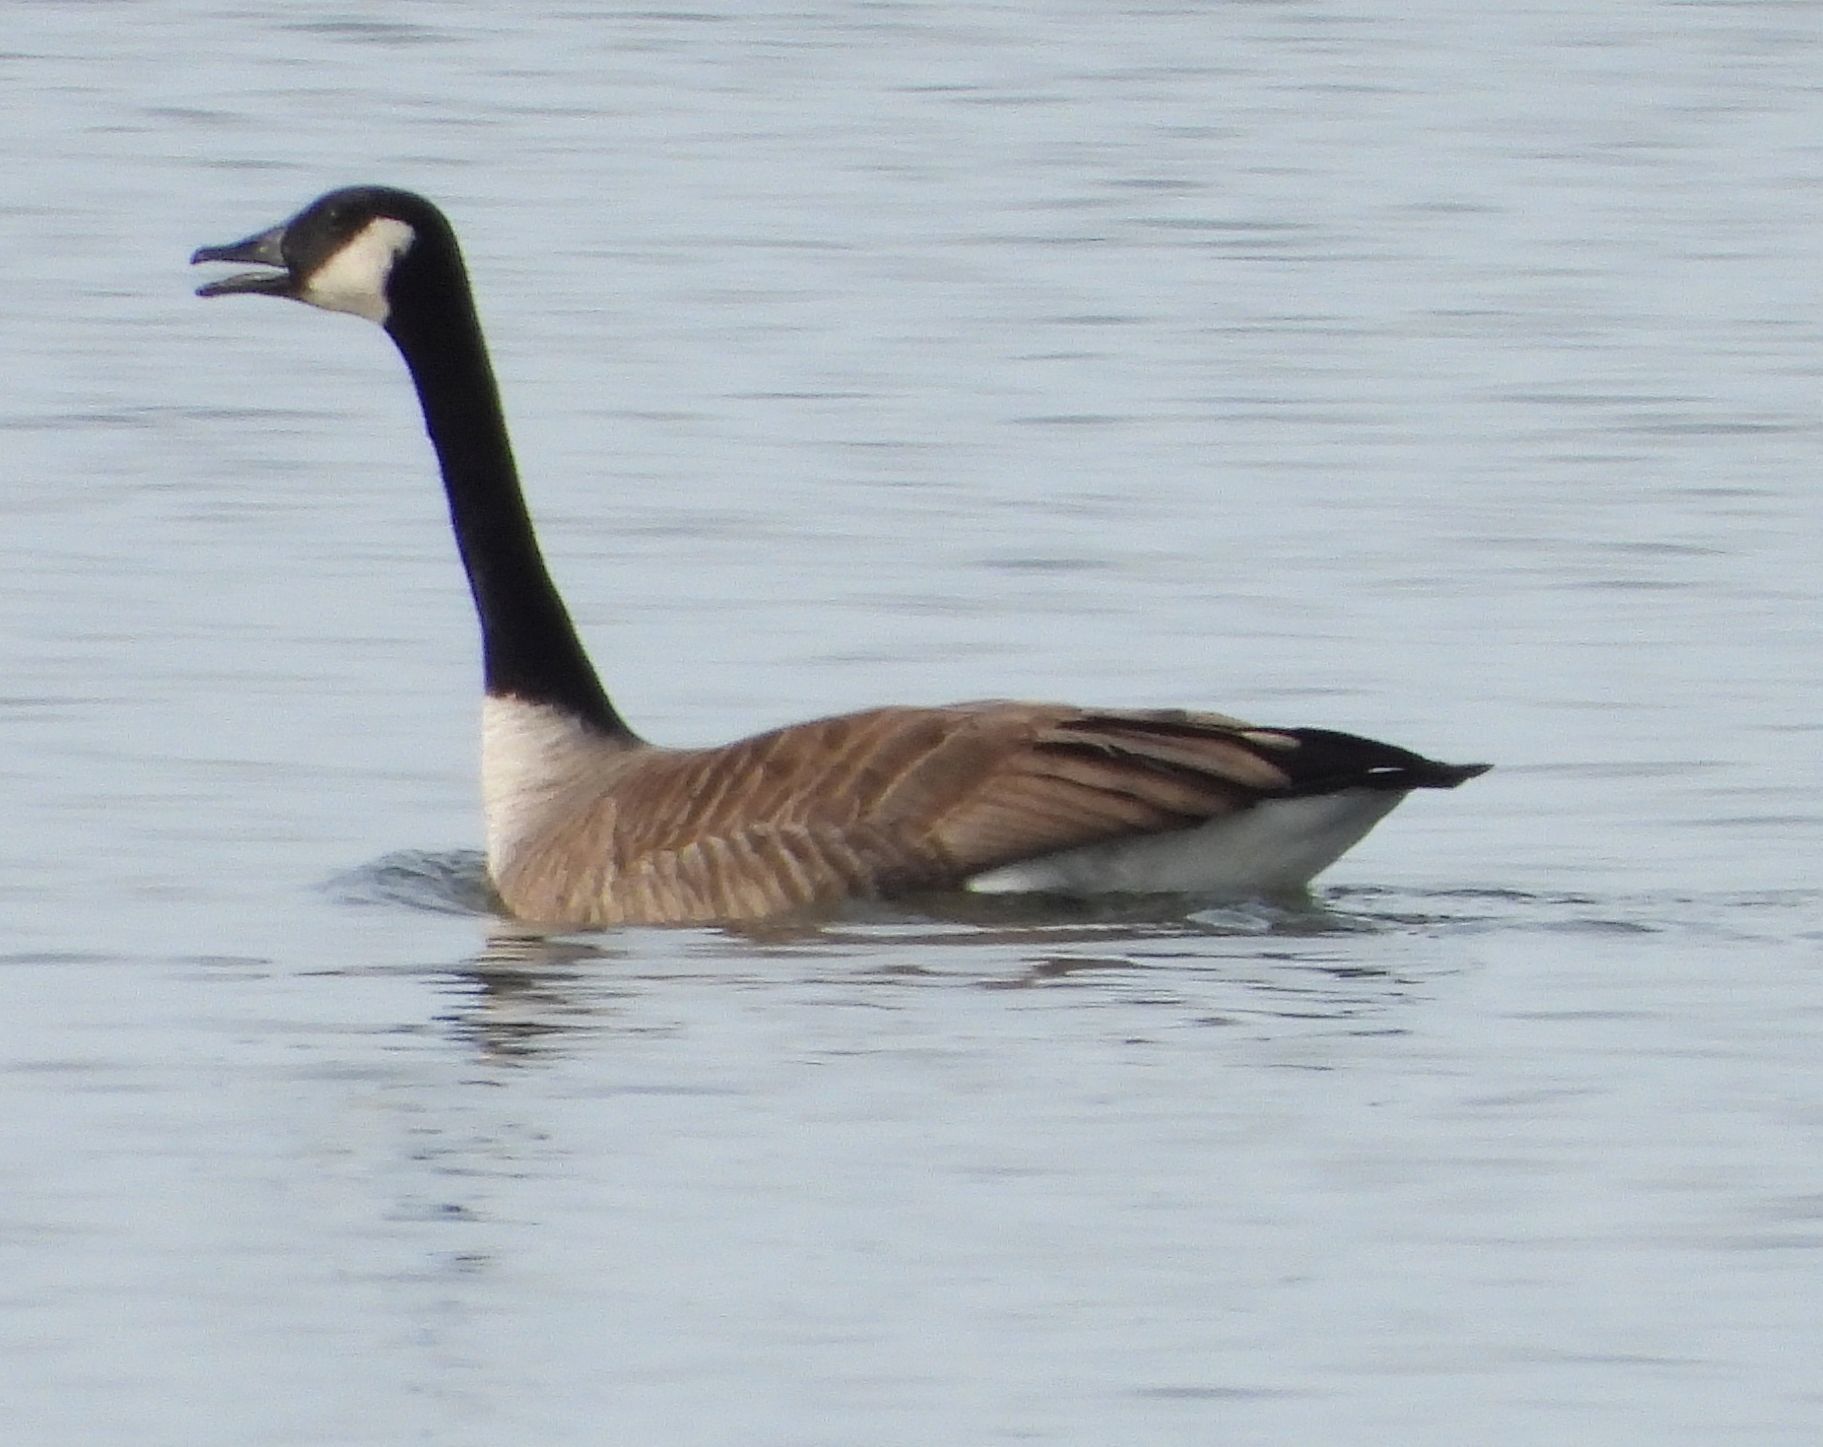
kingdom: Animalia
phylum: Chordata
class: Aves
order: Anseriformes
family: Anatidae
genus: Branta
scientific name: Branta canadensis
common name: Canada goose
